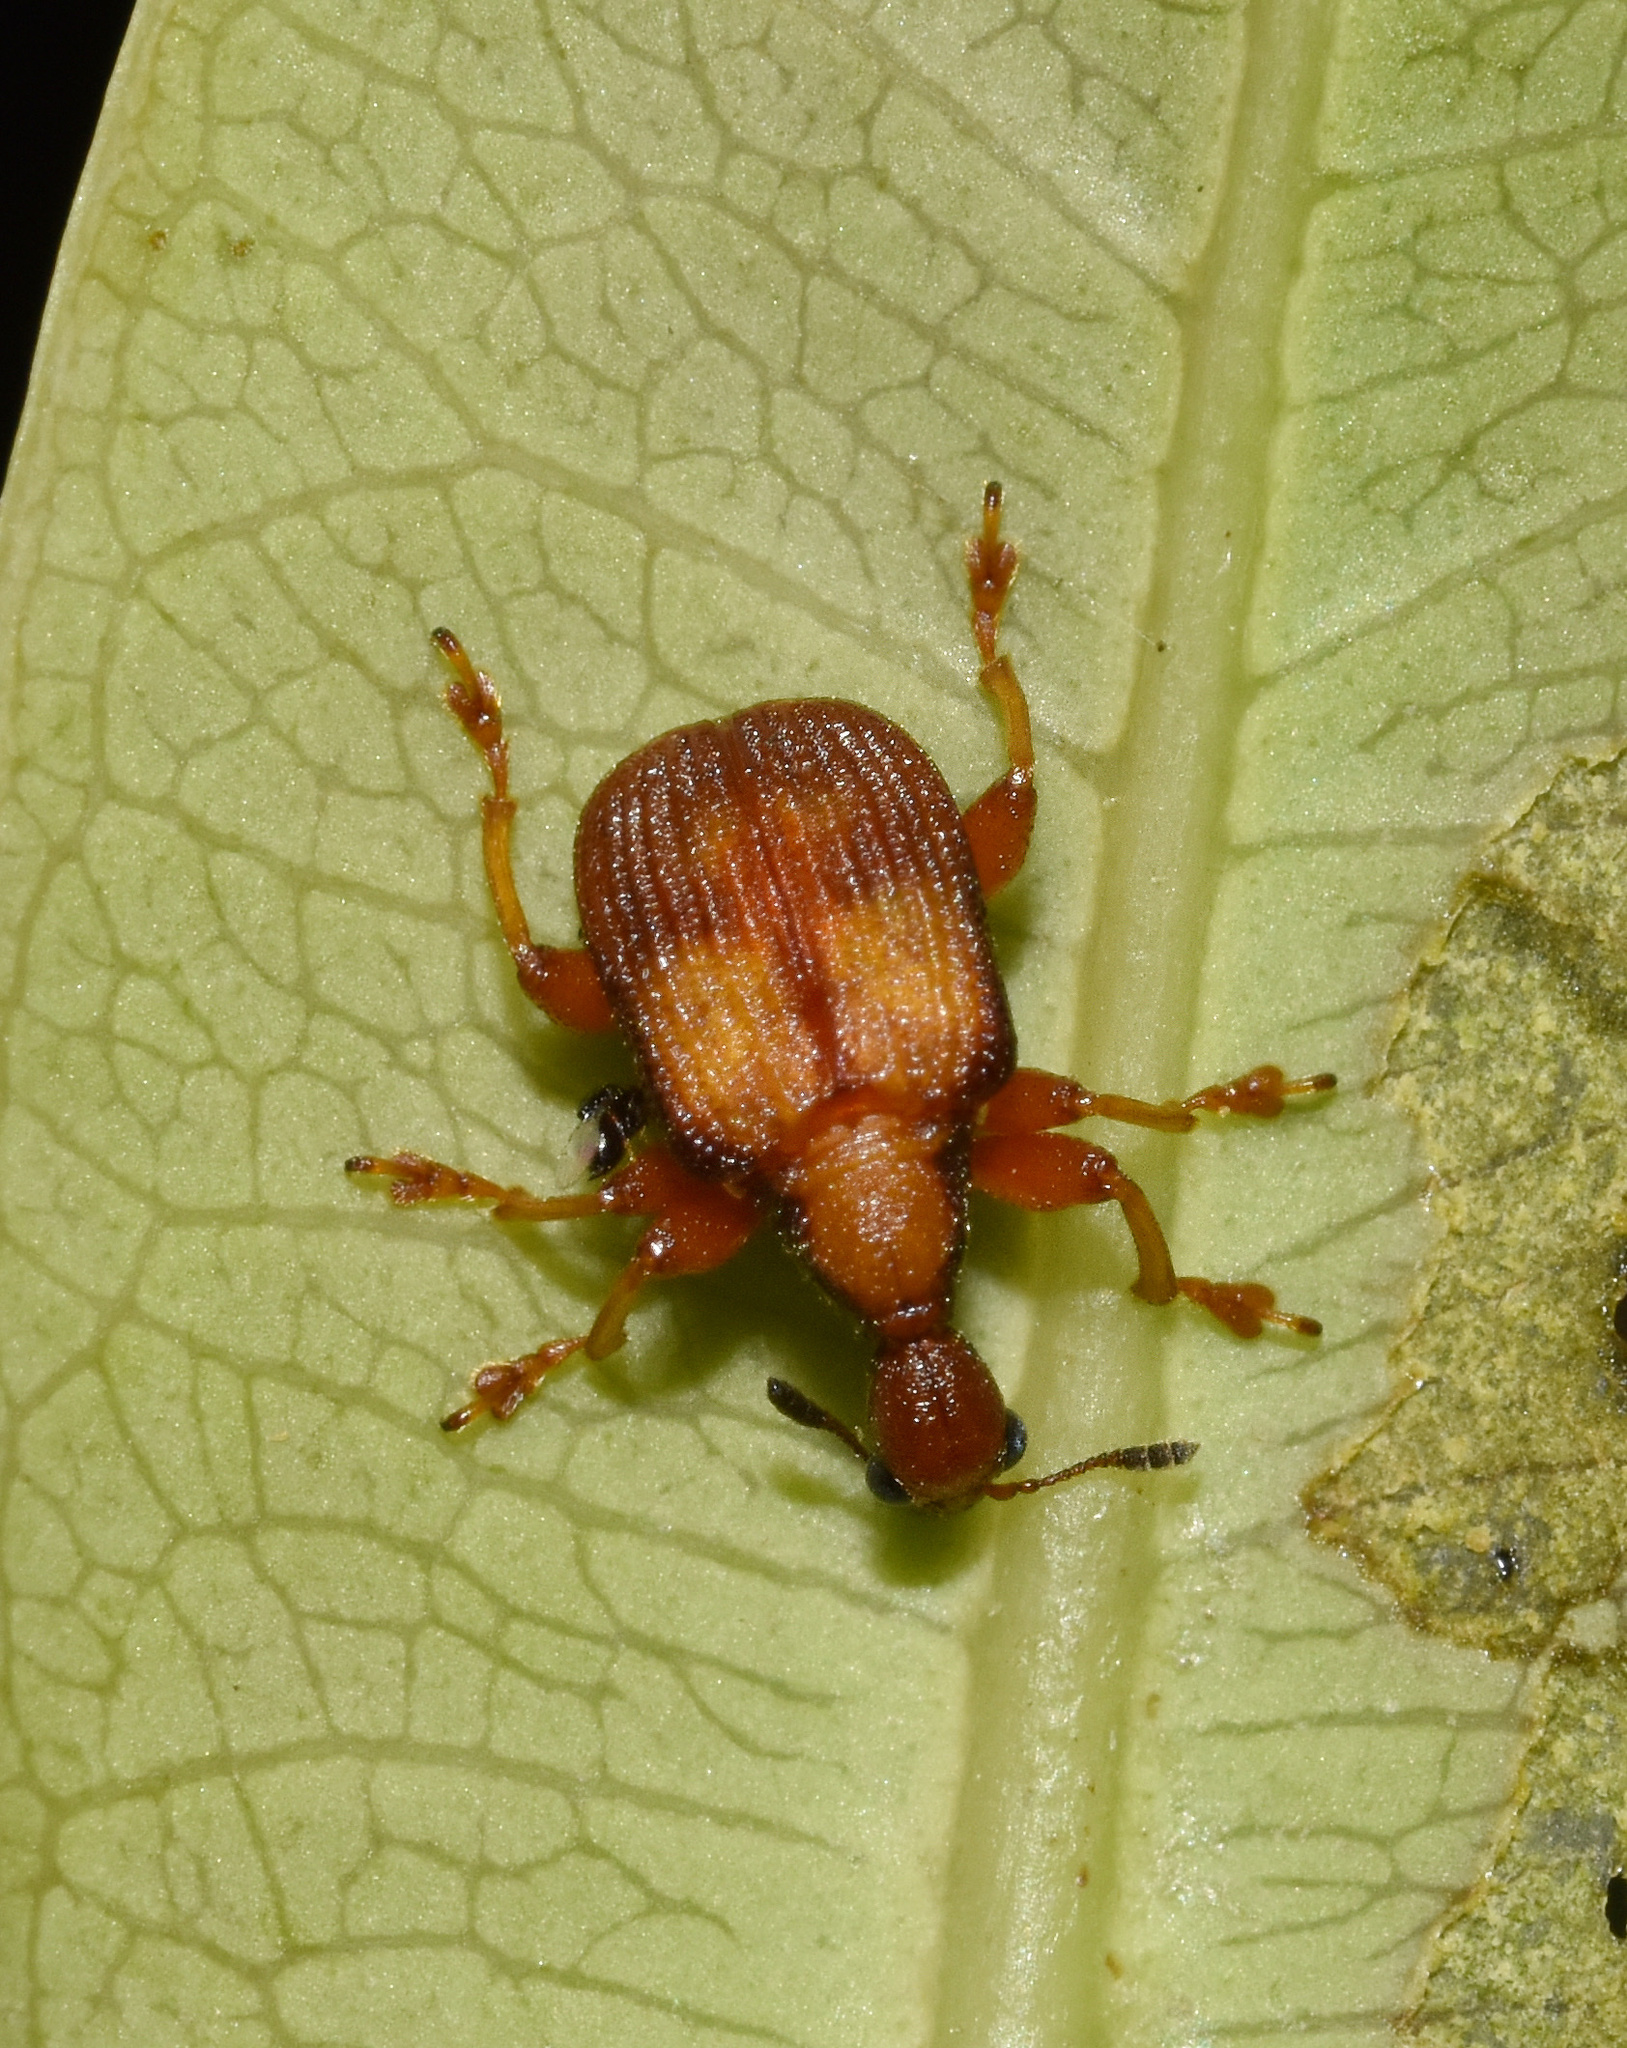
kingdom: Animalia
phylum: Arthropoda
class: Insecta
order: Coleoptera
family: Attelabidae
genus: Parapoderus
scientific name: Parapoderus submarginatus
